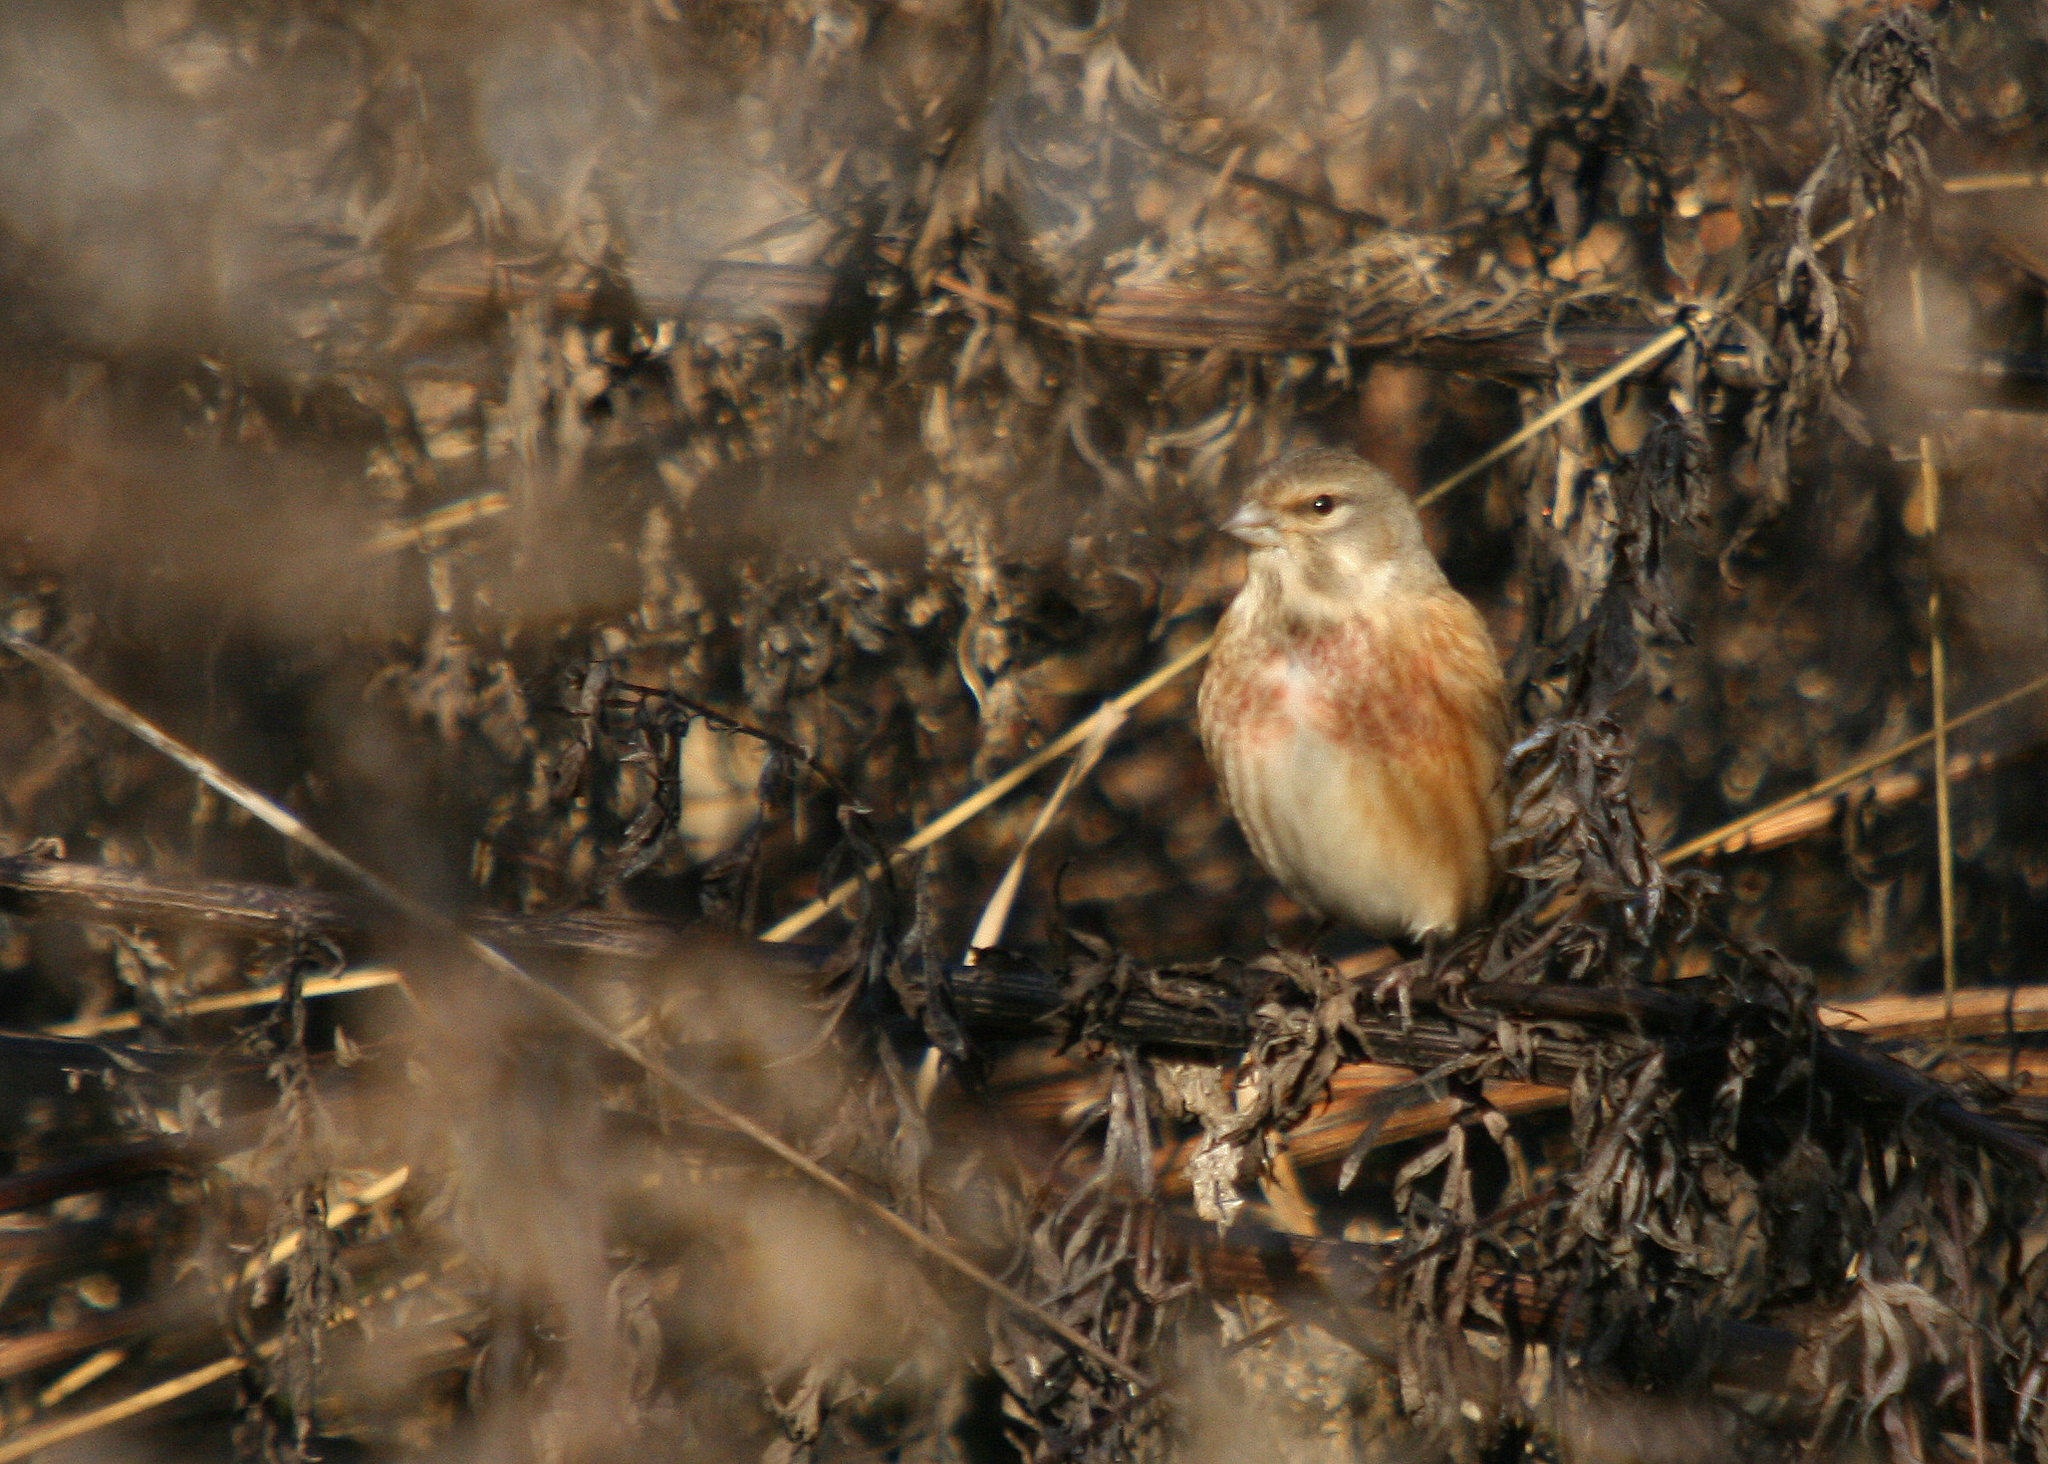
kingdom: Animalia
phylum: Chordata
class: Aves
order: Passeriformes
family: Fringillidae
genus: Linaria
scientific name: Linaria cannabina
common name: Common linnet
